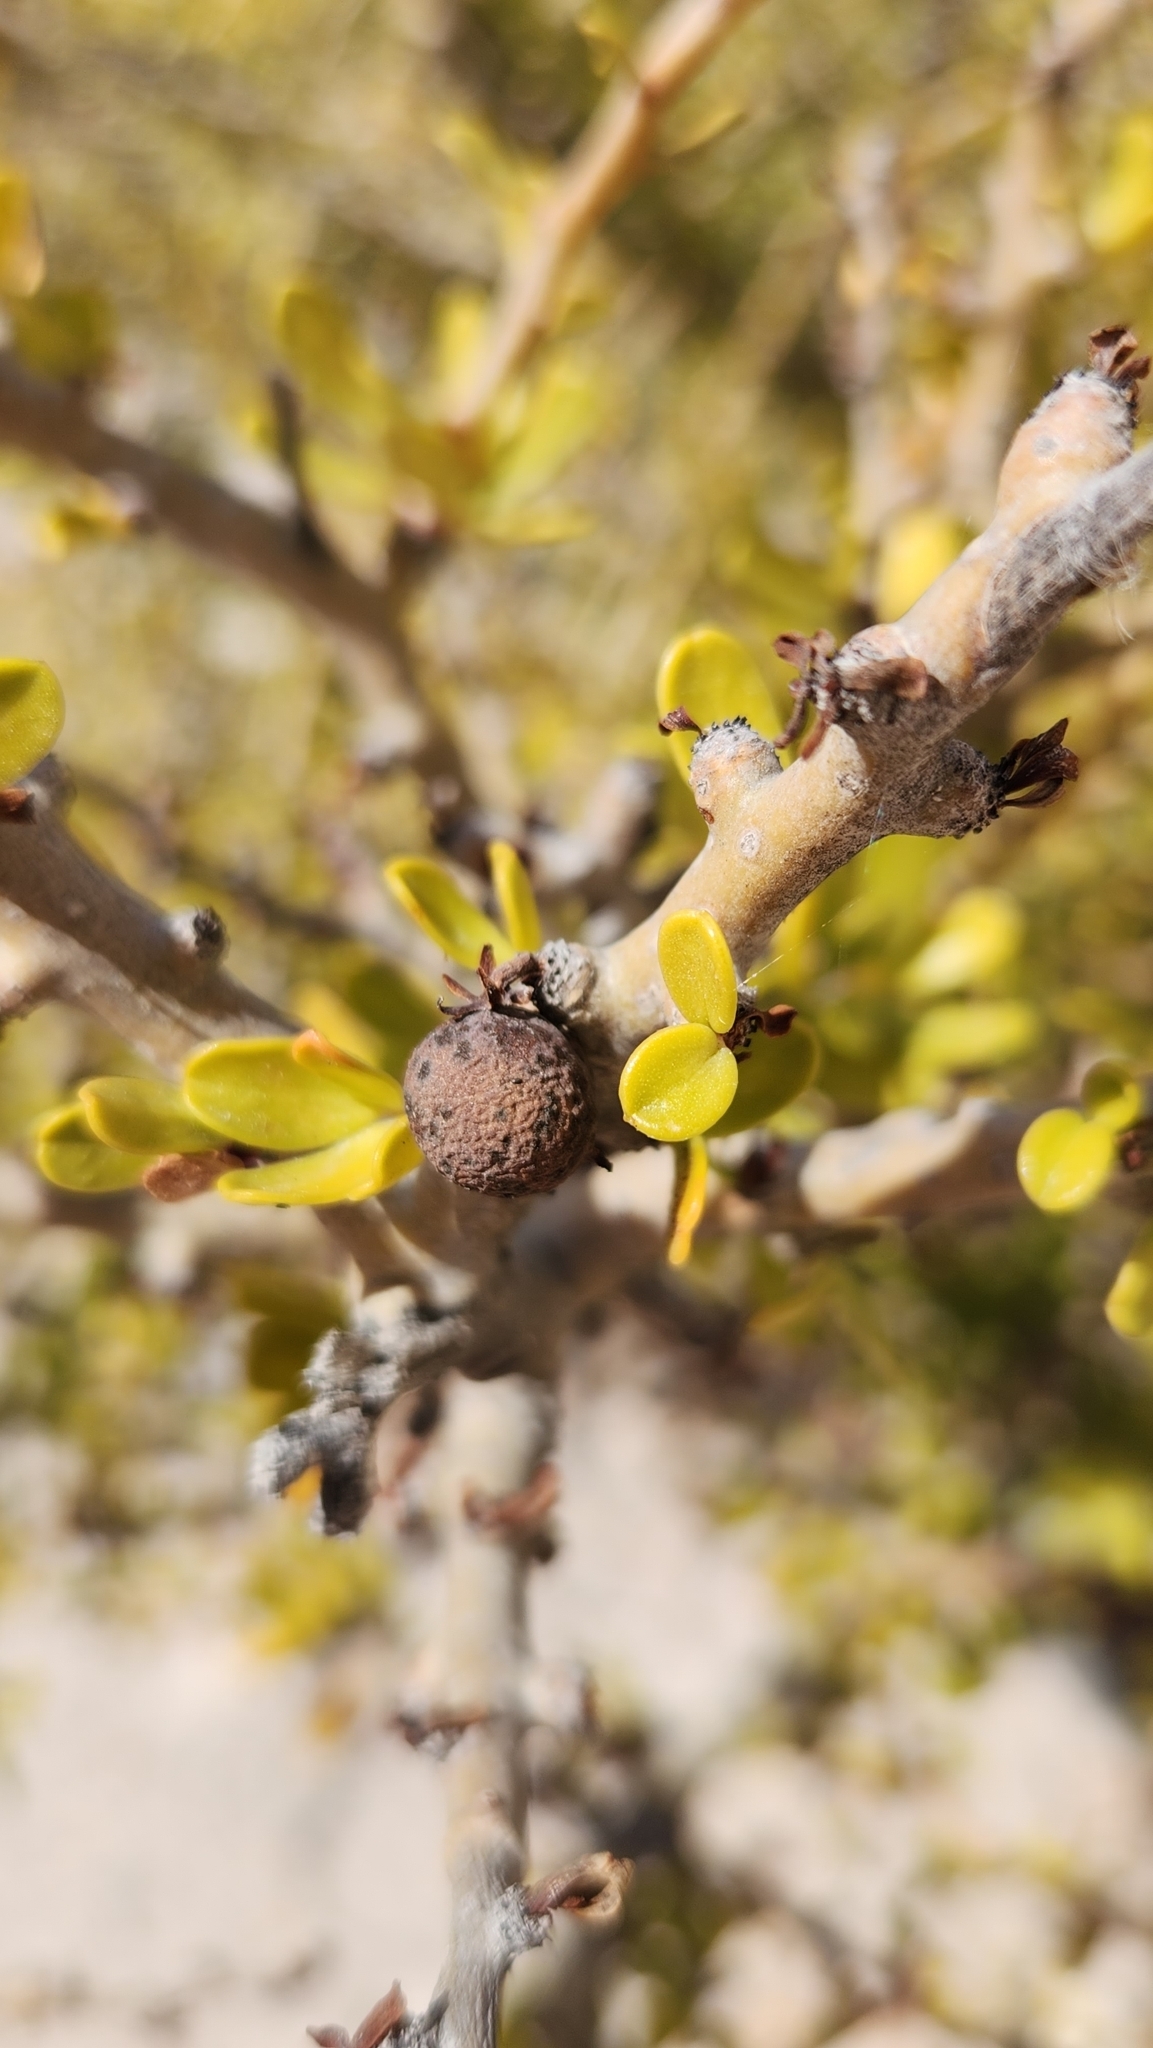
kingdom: Plantae
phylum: Tracheophyta
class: Magnoliopsida
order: Malpighiales
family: Euphorbiaceae
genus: Jatropha
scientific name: Jatropha cuneata
